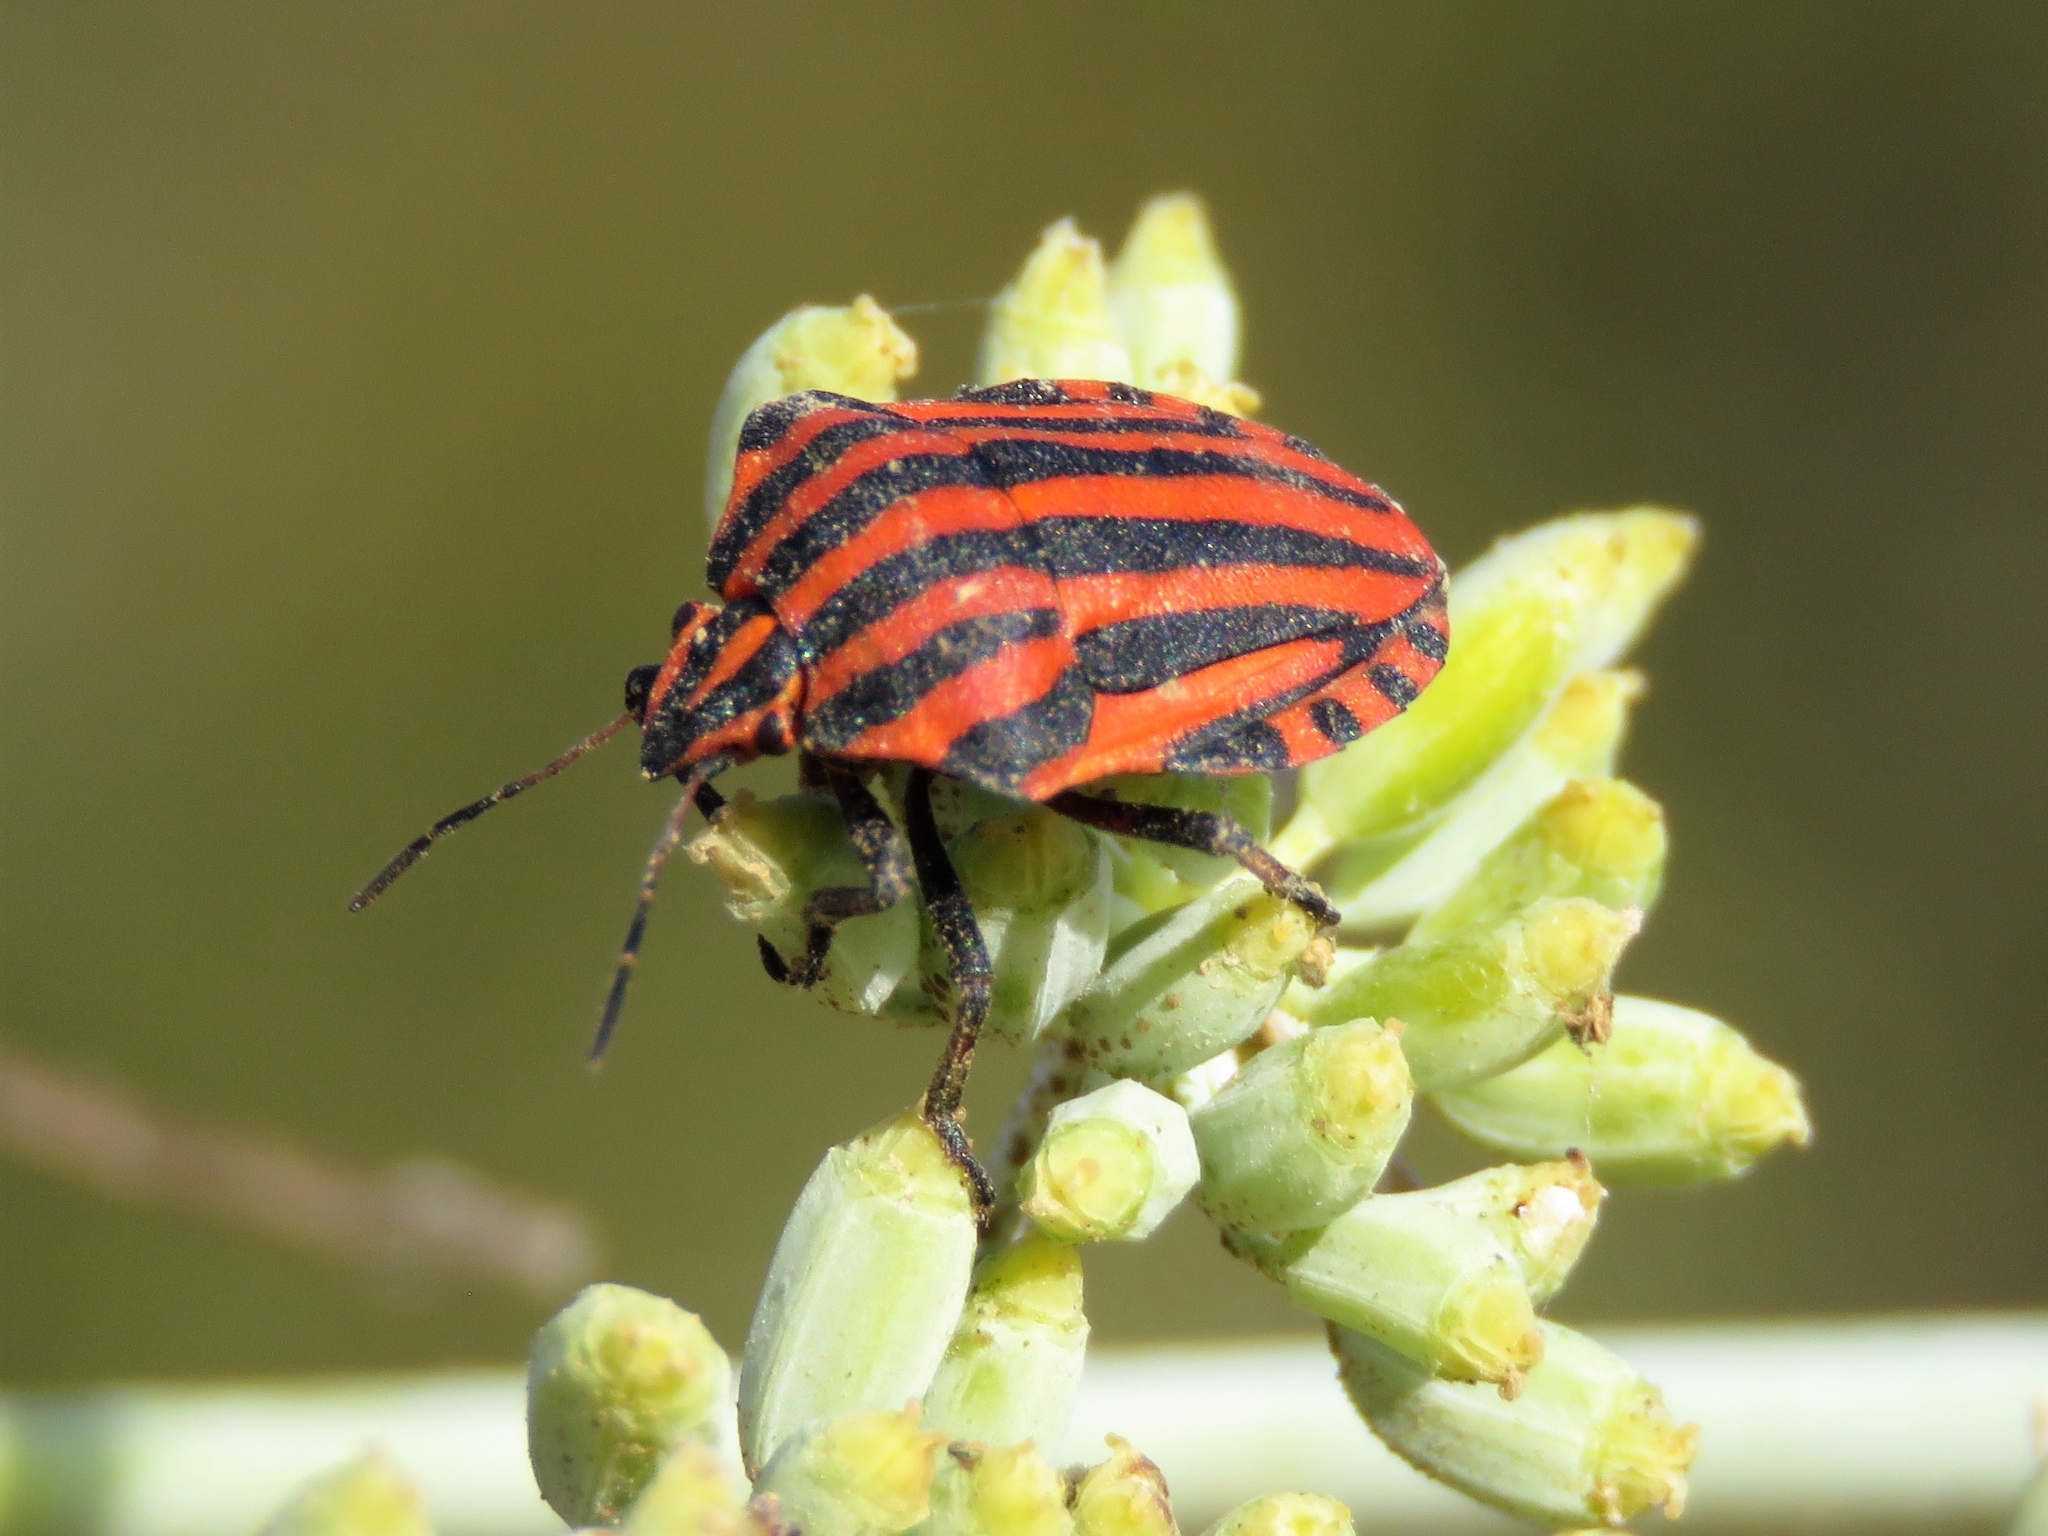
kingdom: Animalia
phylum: Arthropoda
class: Insecta
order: Hemiptera
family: Pentatomidae
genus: Graphosoma
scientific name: Graphosoma italicum
